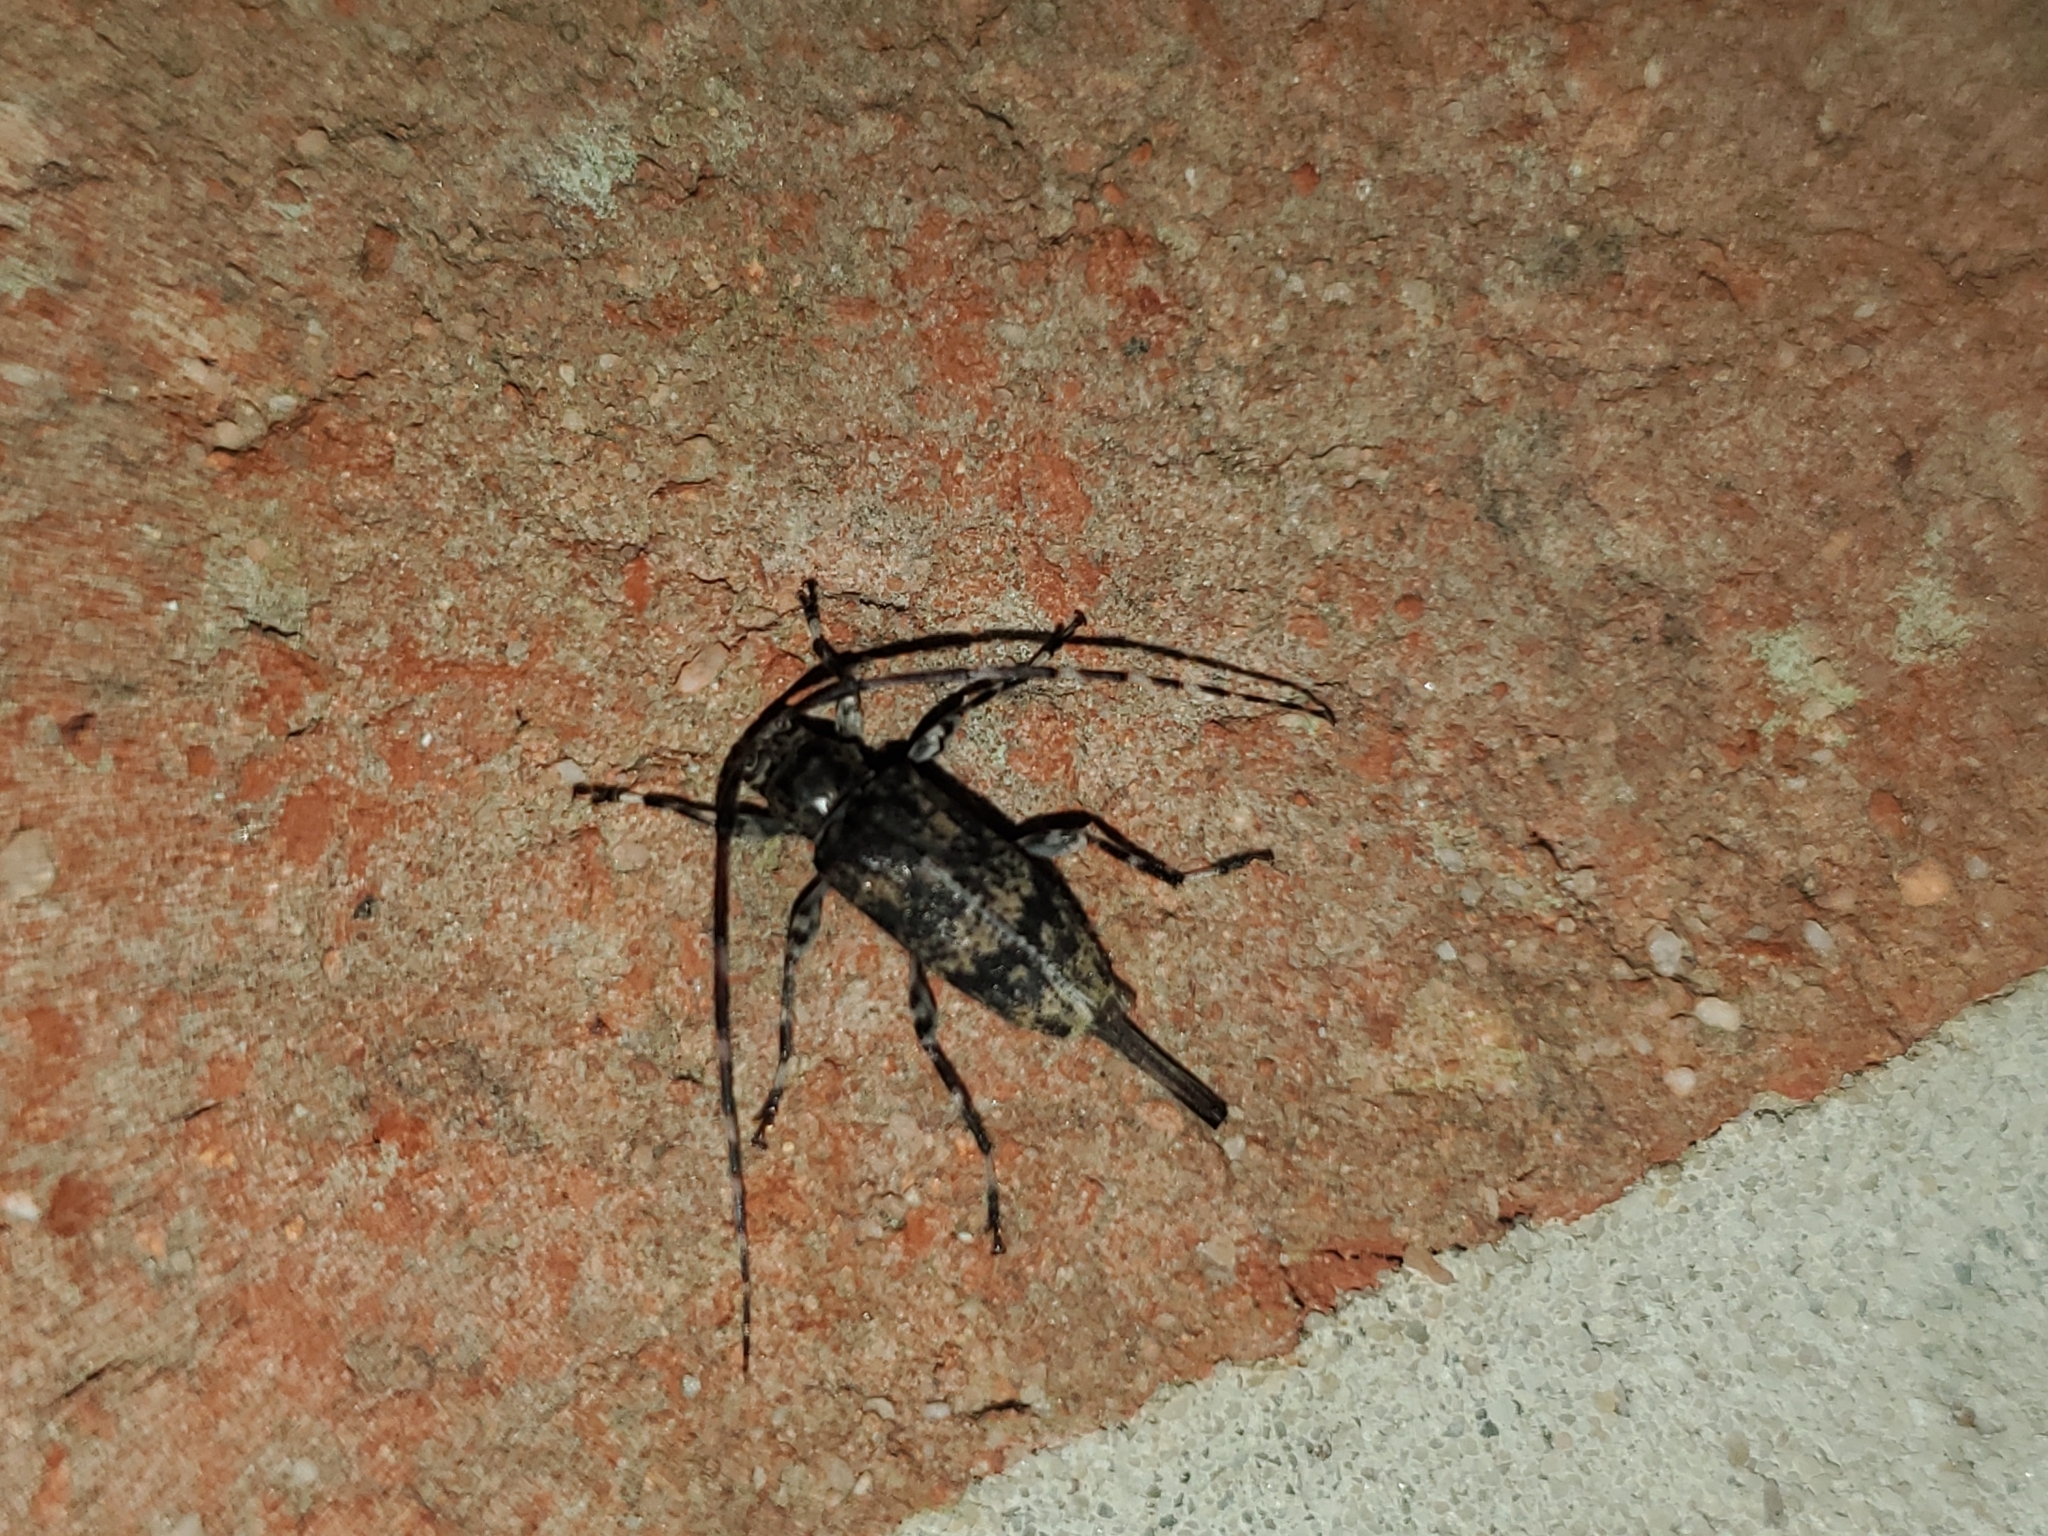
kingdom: Animalia
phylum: Arthropoda
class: Insecta
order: Coleoptera
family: Cerambycidae
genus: Graphisurus
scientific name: Graphisurus fasciatus
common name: Banded graphisurus
